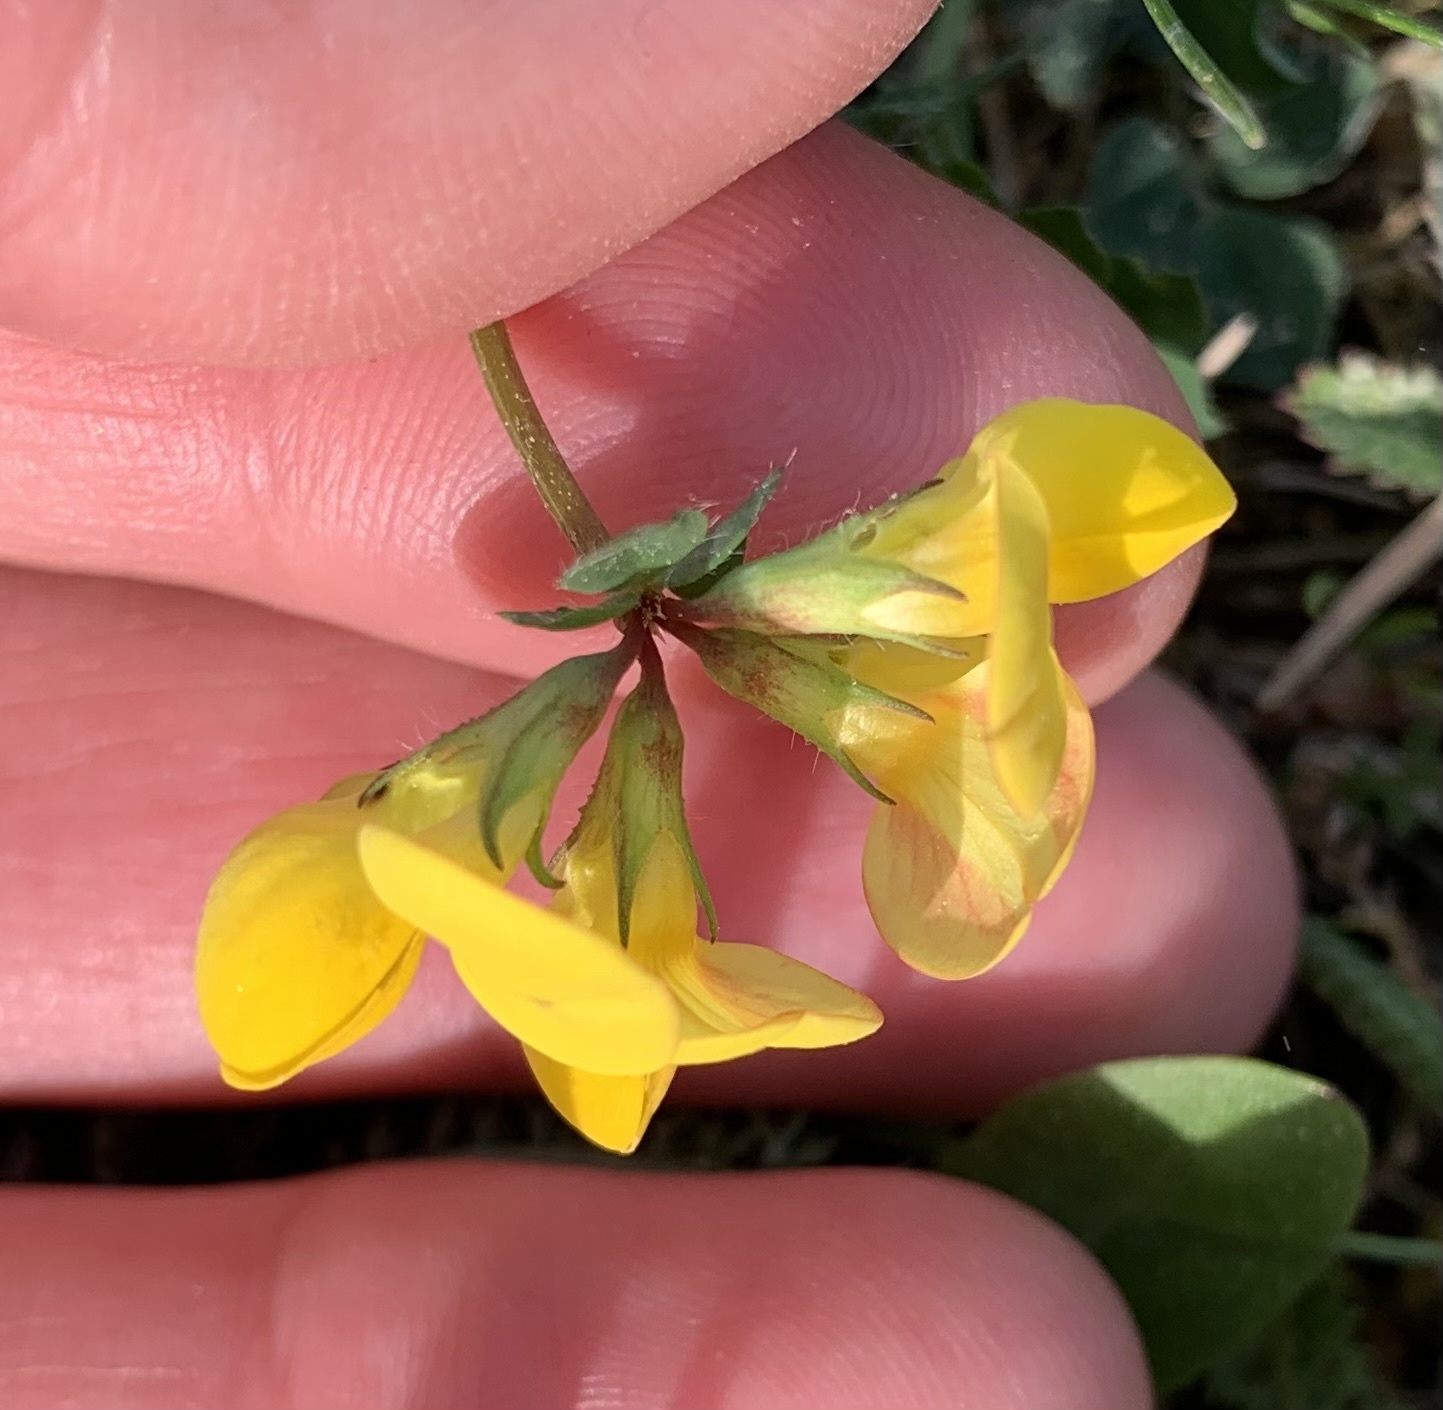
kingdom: Plantae
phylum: Tracheophyta
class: Magnoliopsida
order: Fabales
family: Fabaceae
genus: Lotus
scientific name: Lotus corniculatus
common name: Common bird's-foot-trefoil
